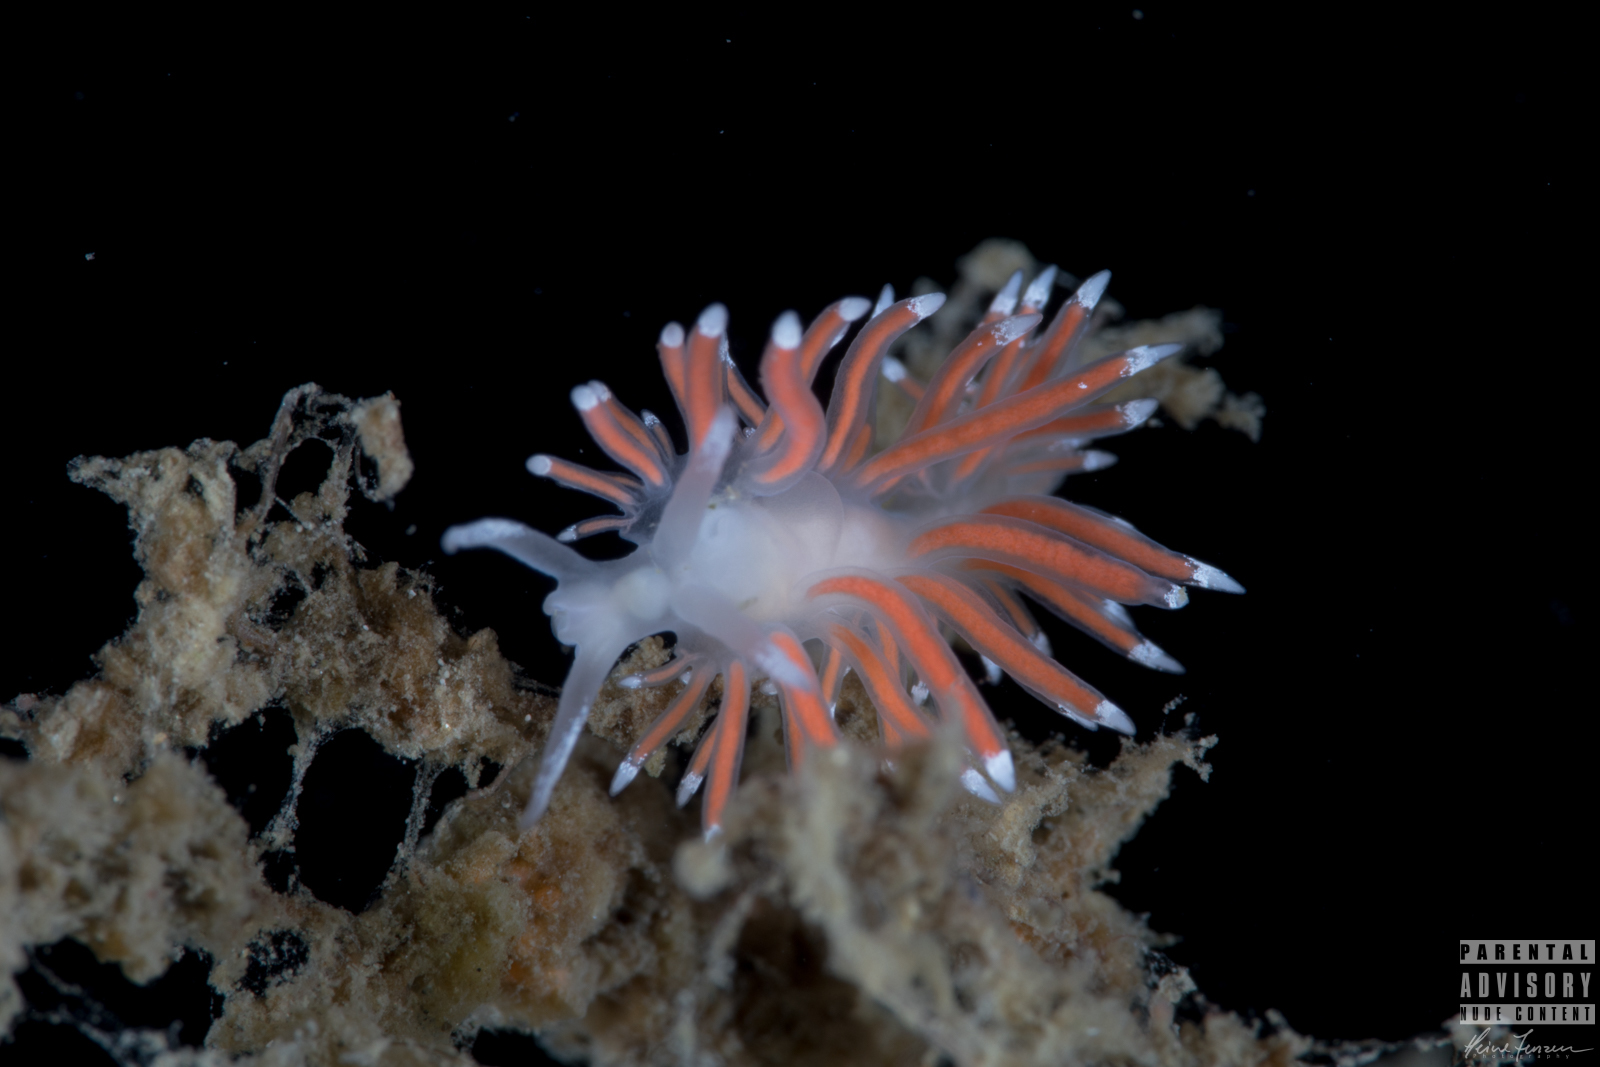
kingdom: Animalia
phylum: Mollusca
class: Gastropoda
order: Nudibranchia
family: Coryphellidae
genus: Coryphella
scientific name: Coryphella gracilis
